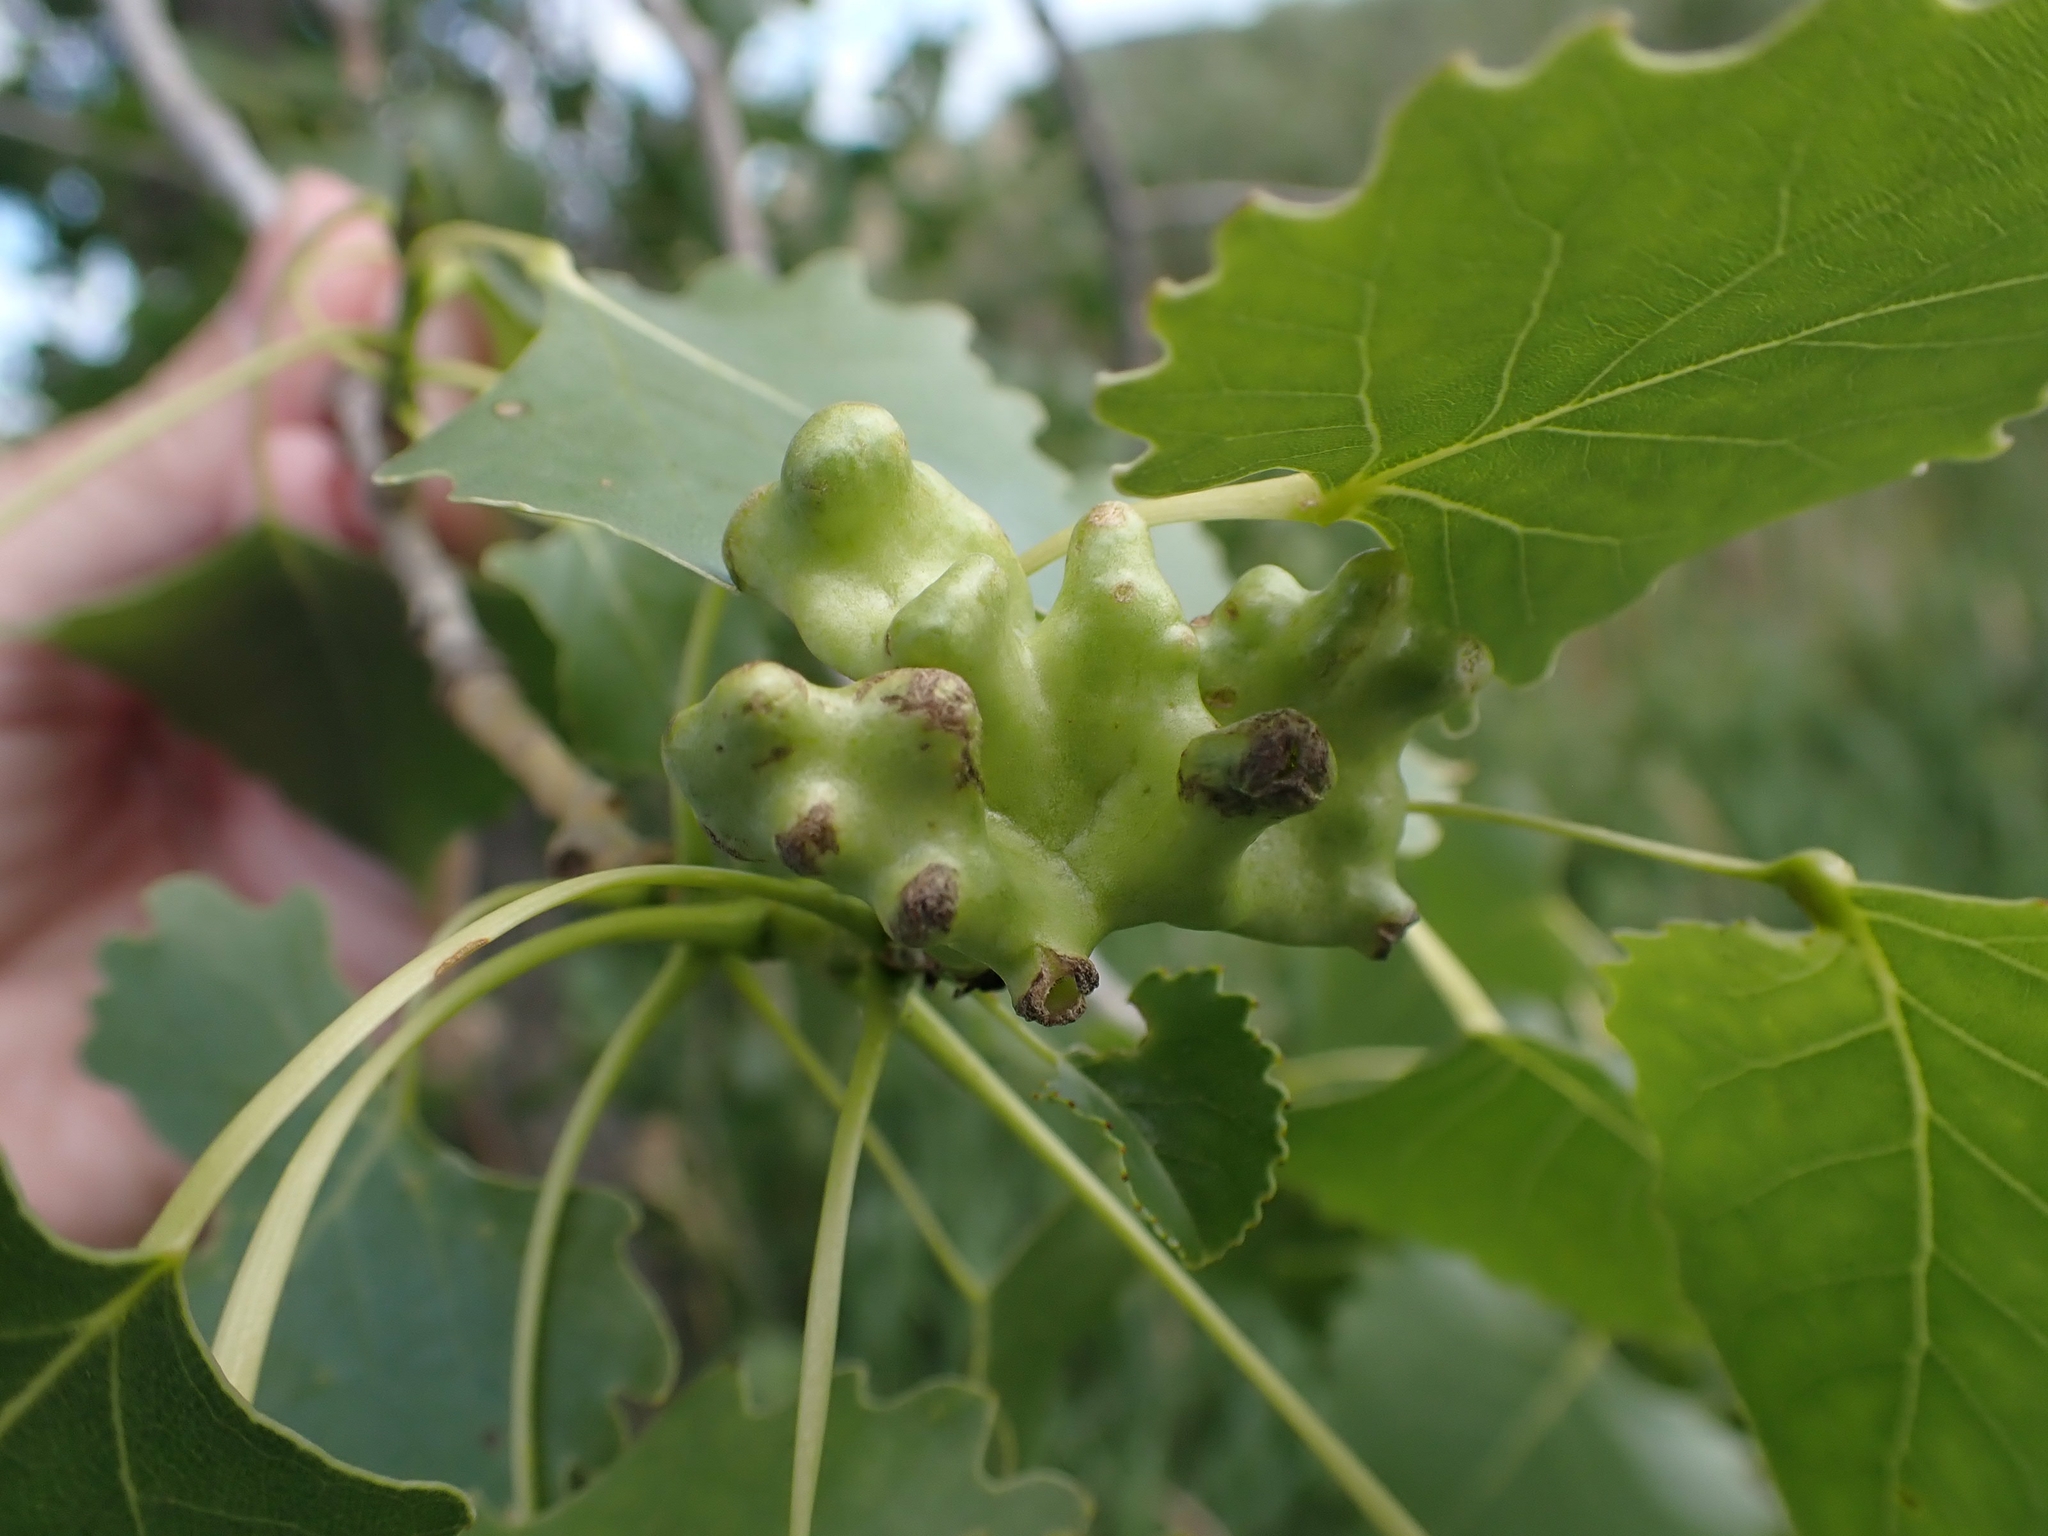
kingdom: Animalia
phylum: Arthropoda
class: Insecta
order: Hemiptera
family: Aphididae
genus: Mordwilkoja
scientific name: Mordwilkoja vagabunda
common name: Poplar vagabond aphid
